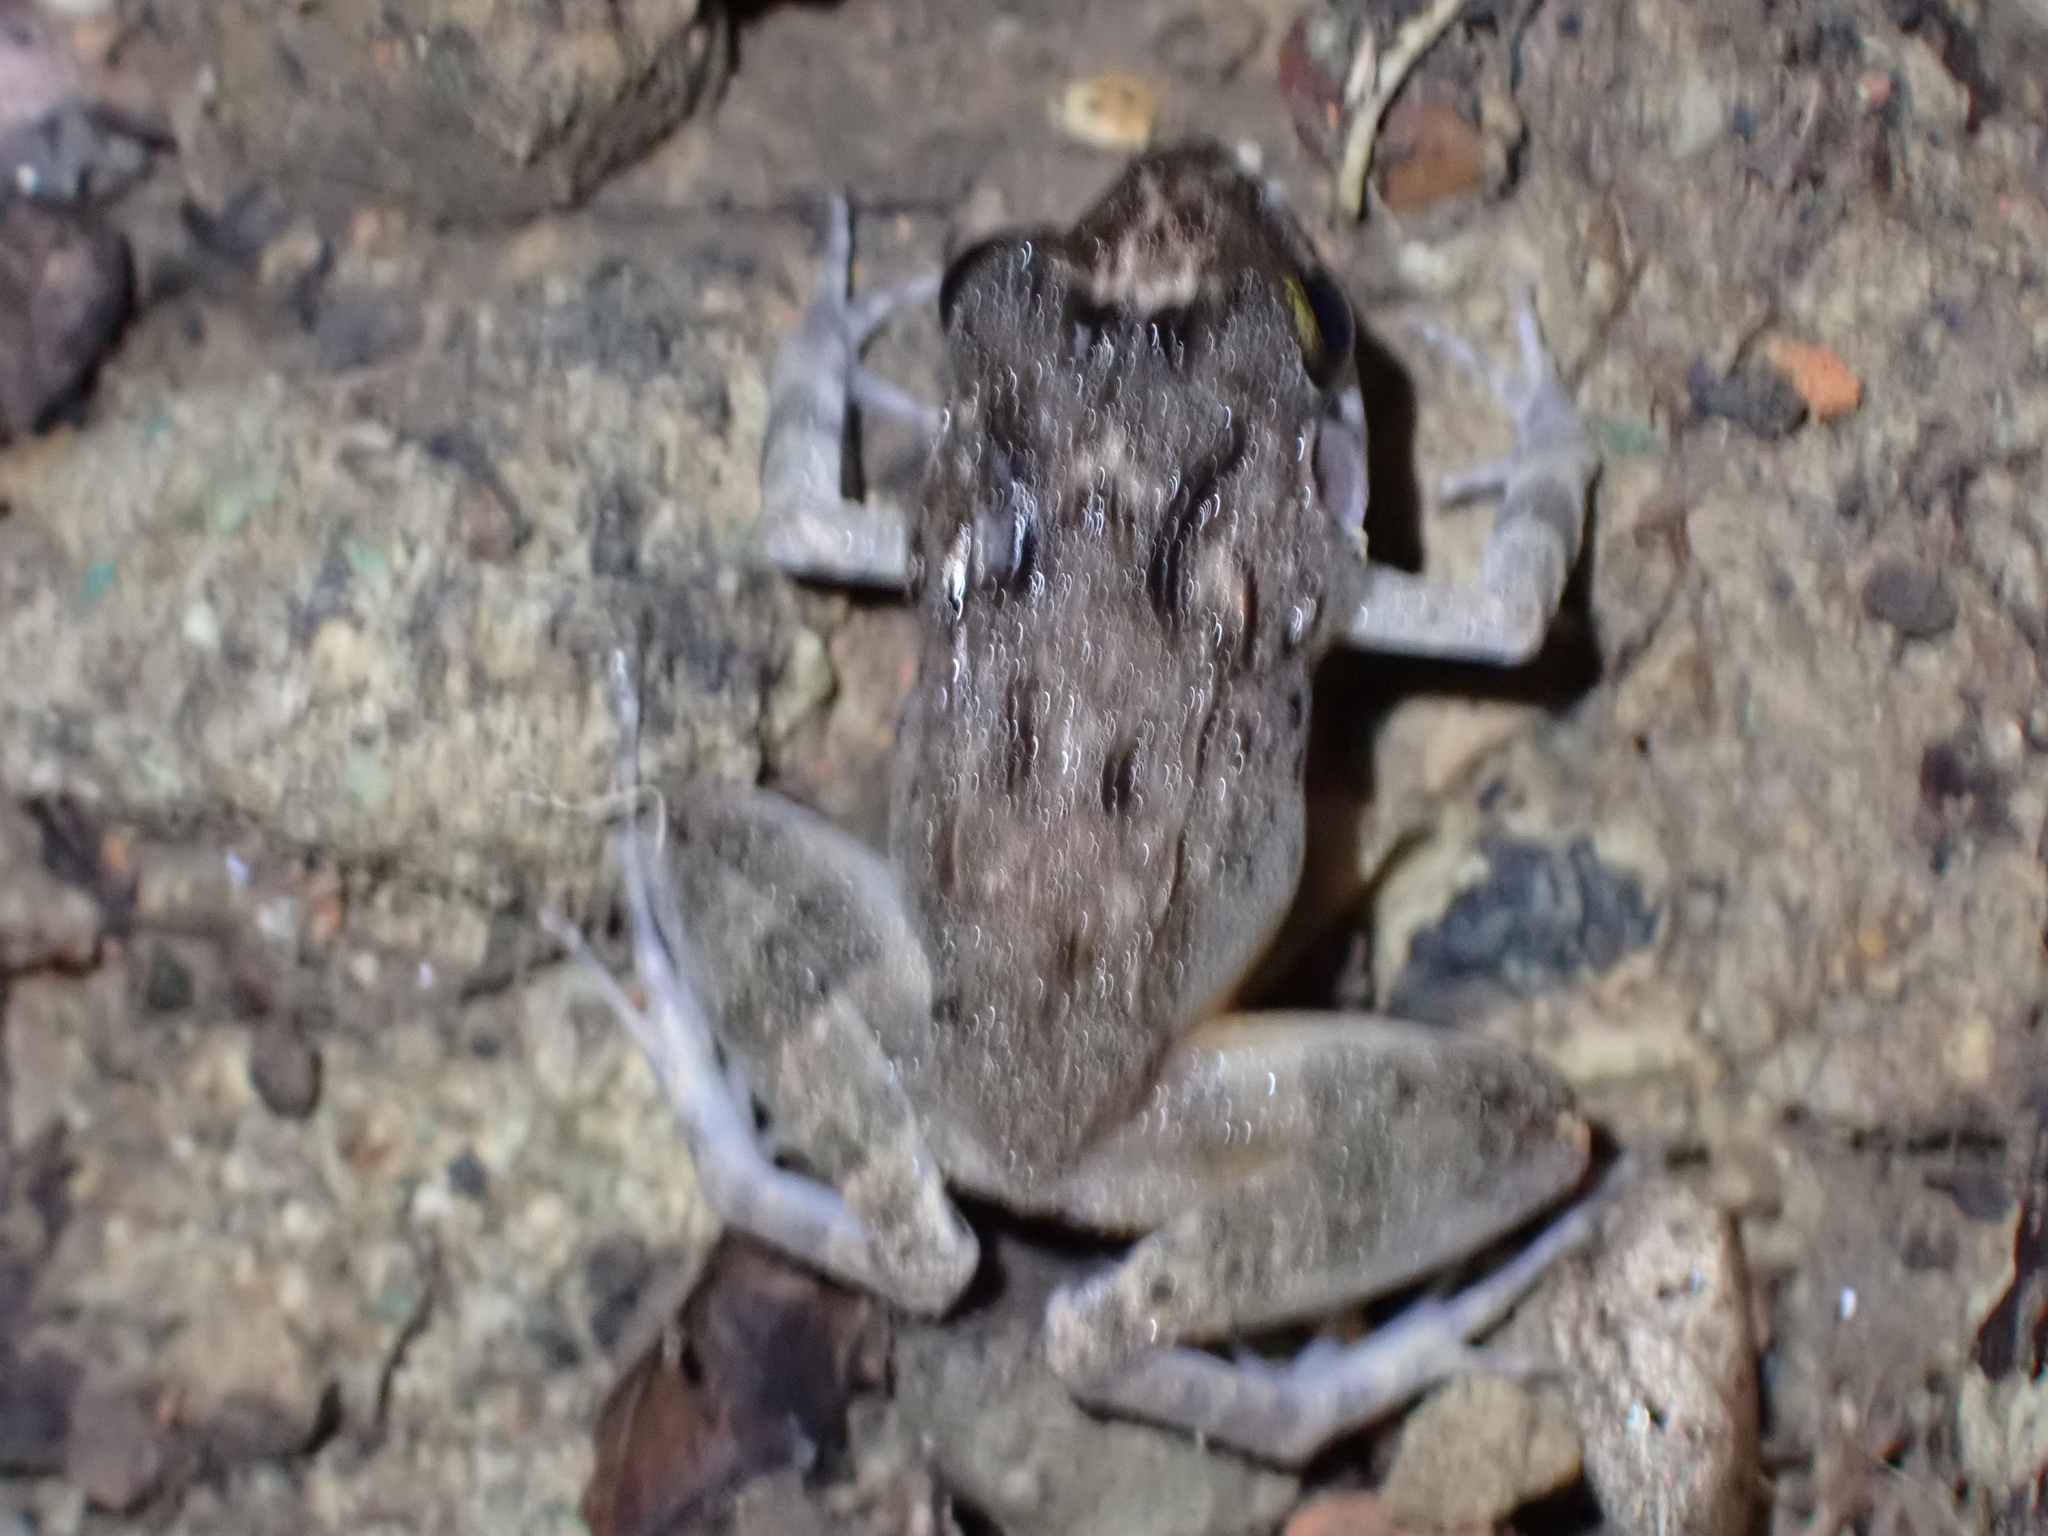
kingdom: Animalia
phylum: Chordata
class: Amphibia
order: Anura
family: Ceratobatrachidae
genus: Cornufer
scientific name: Cornufer papuensis
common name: Papua wrinkled ground frog
